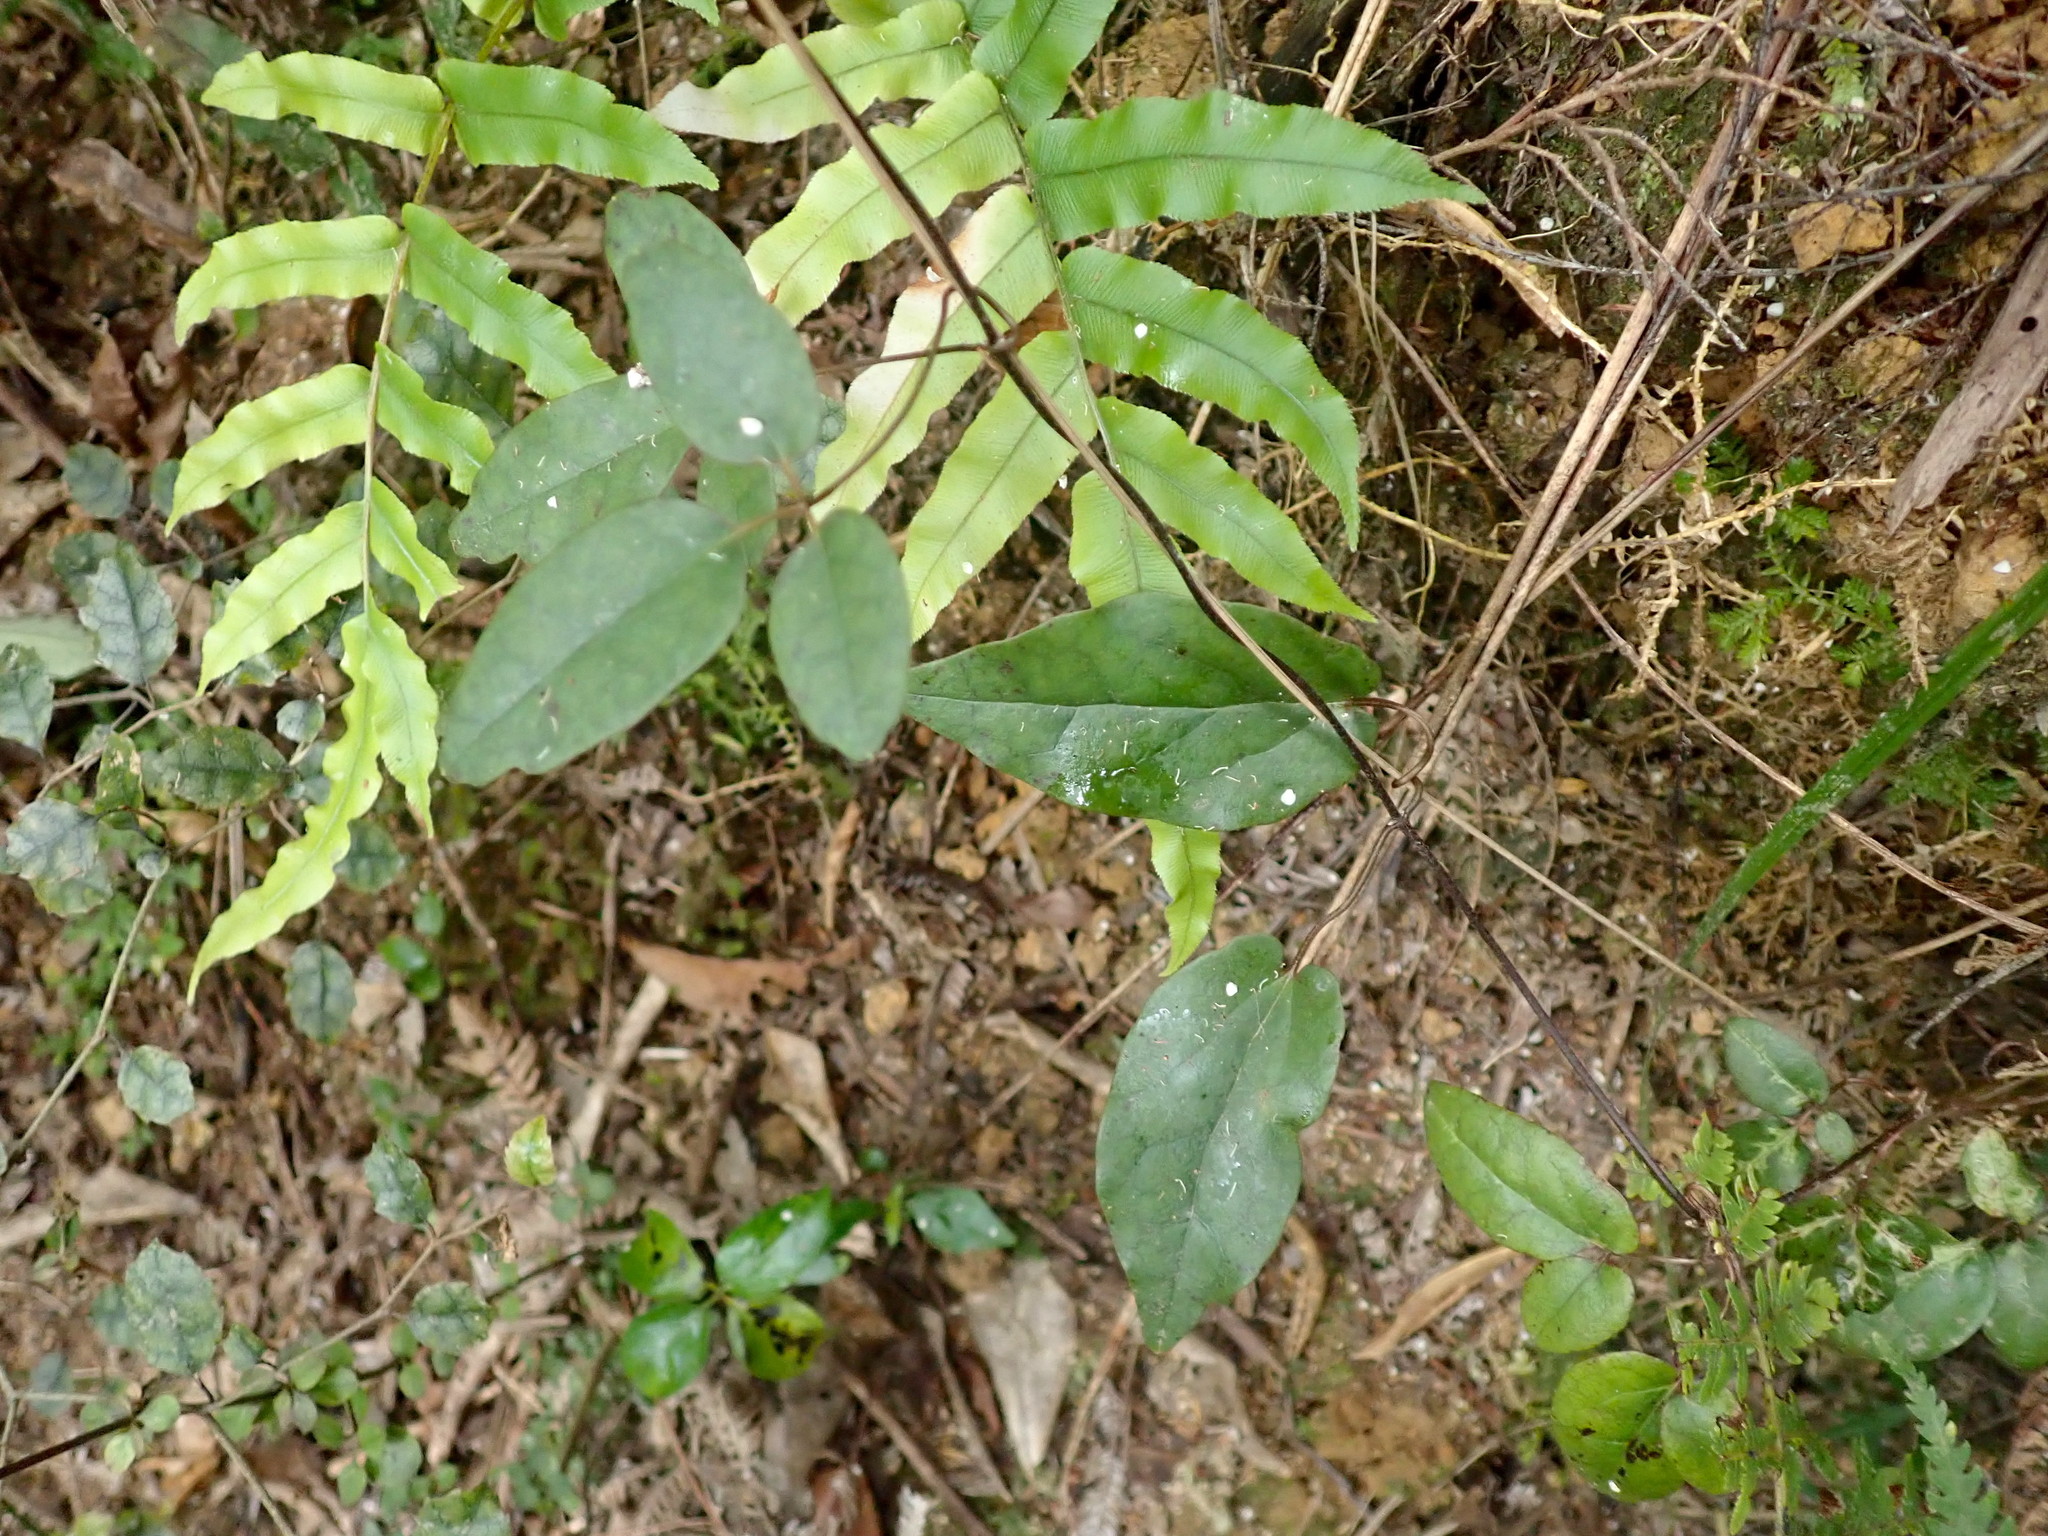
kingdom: Plantae
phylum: Tracheophyta
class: Magnoliopsida
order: Asterales
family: Rousseaceae
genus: Carpodetus
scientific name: Carpodetus serratus
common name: White mapau
